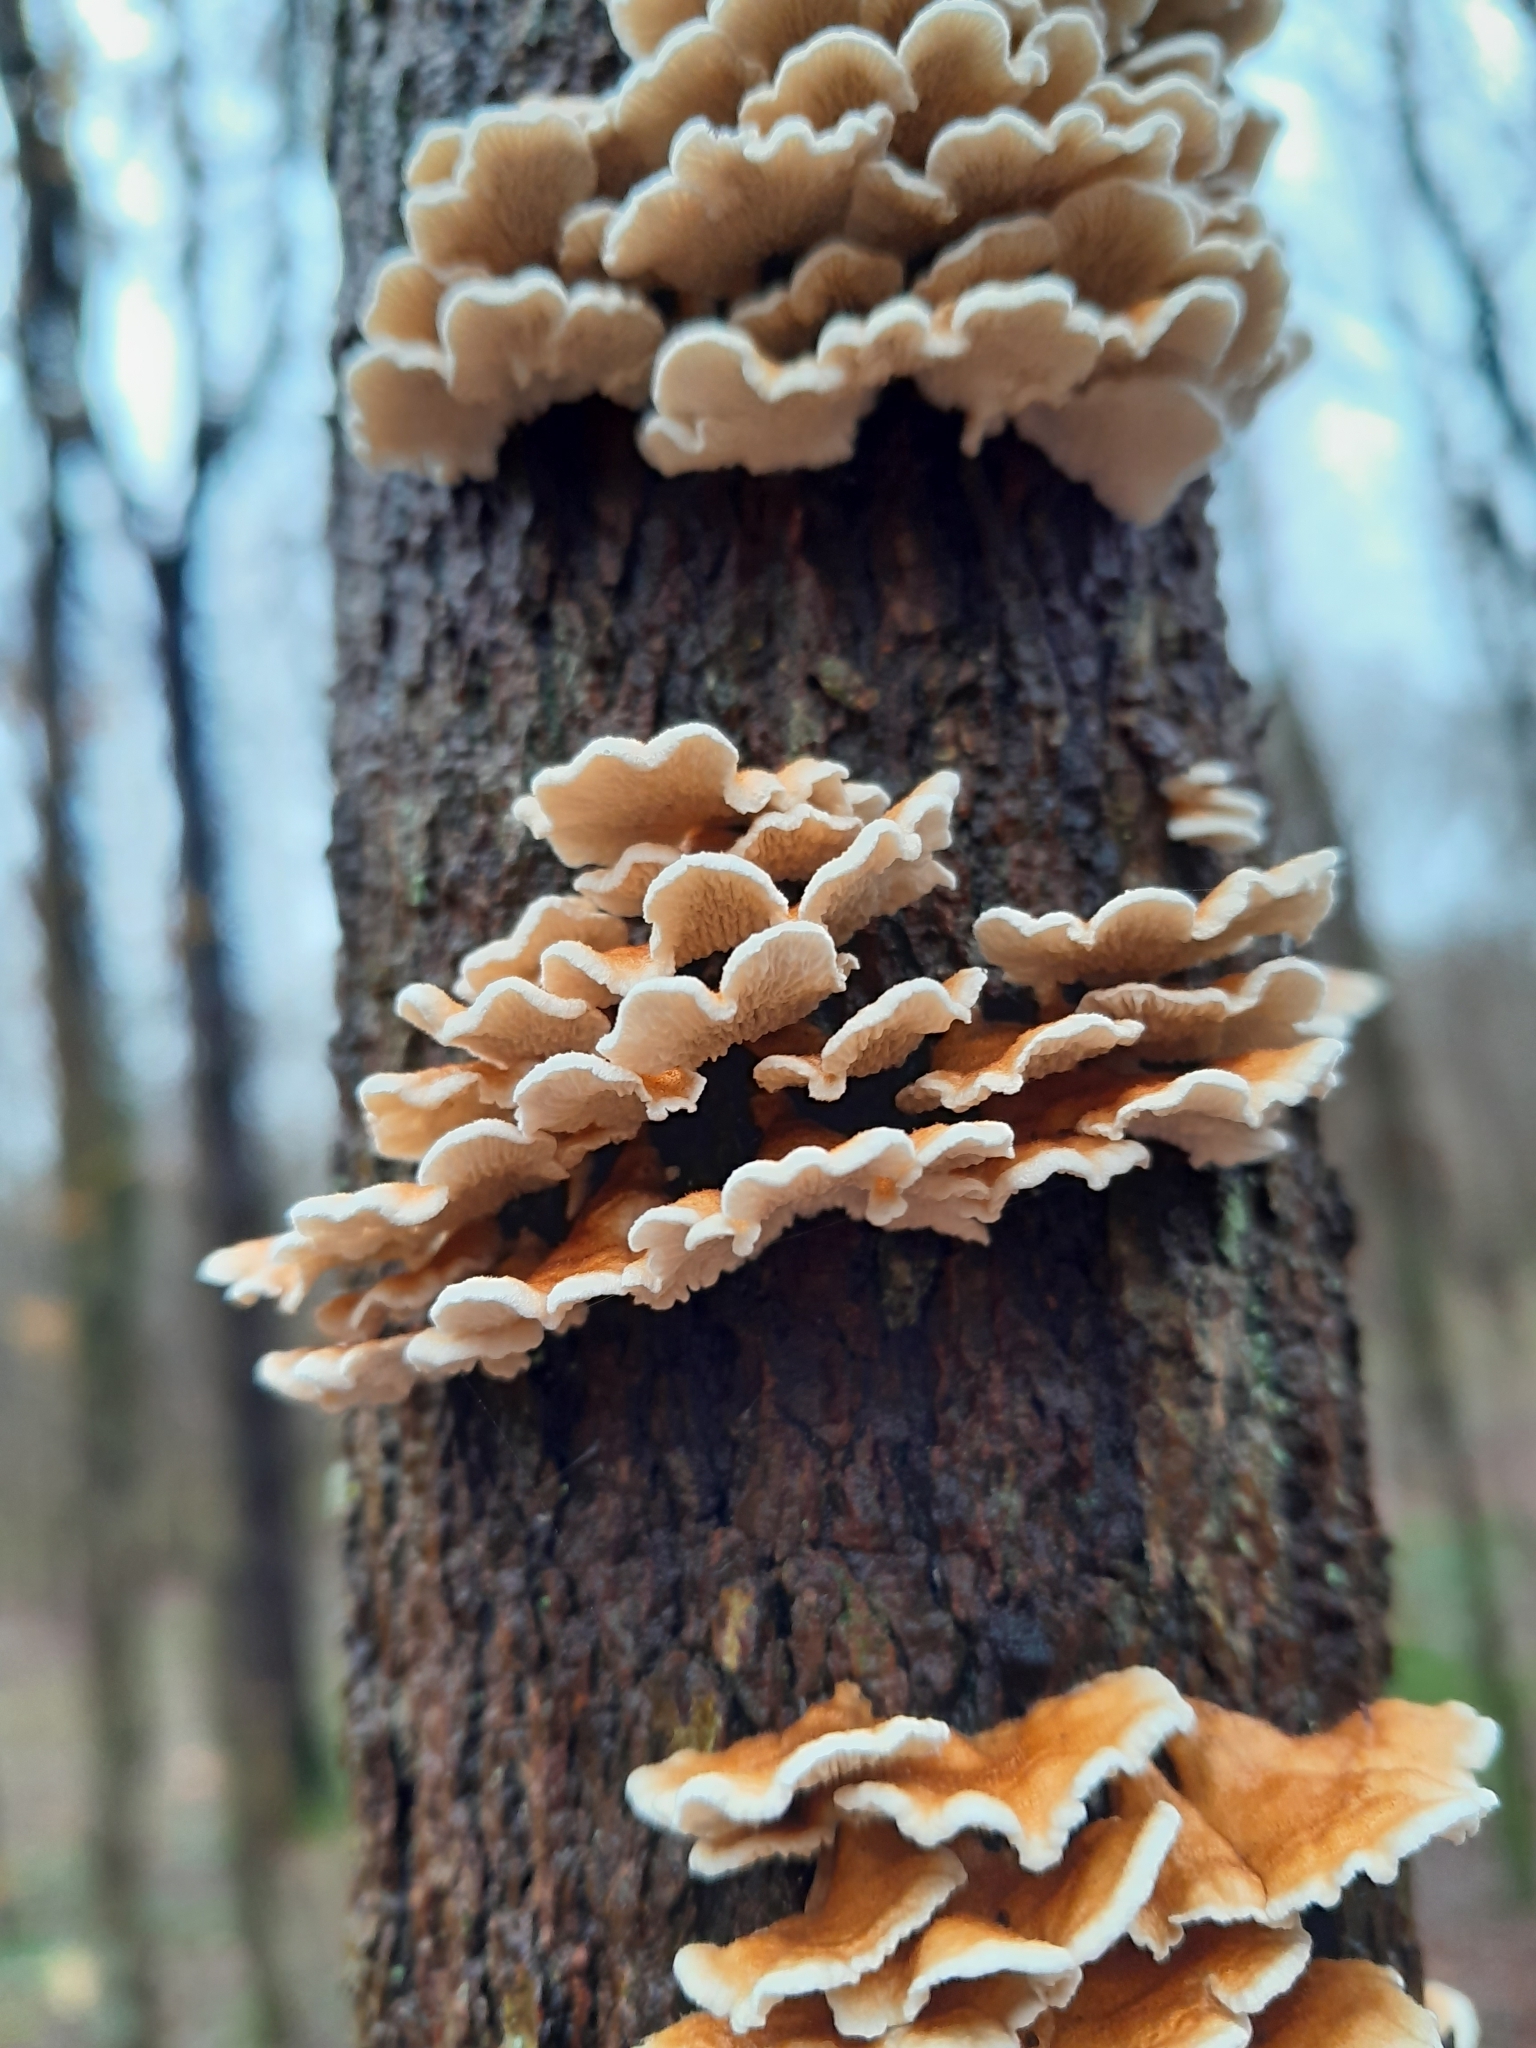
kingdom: Fungi
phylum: Basidiomycota
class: Agaricomycetes
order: Amylocorticiales
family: Amylocorticiaceae
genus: Plicaturopsis
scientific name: Plicaturopsis crispa
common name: Crimped gill
